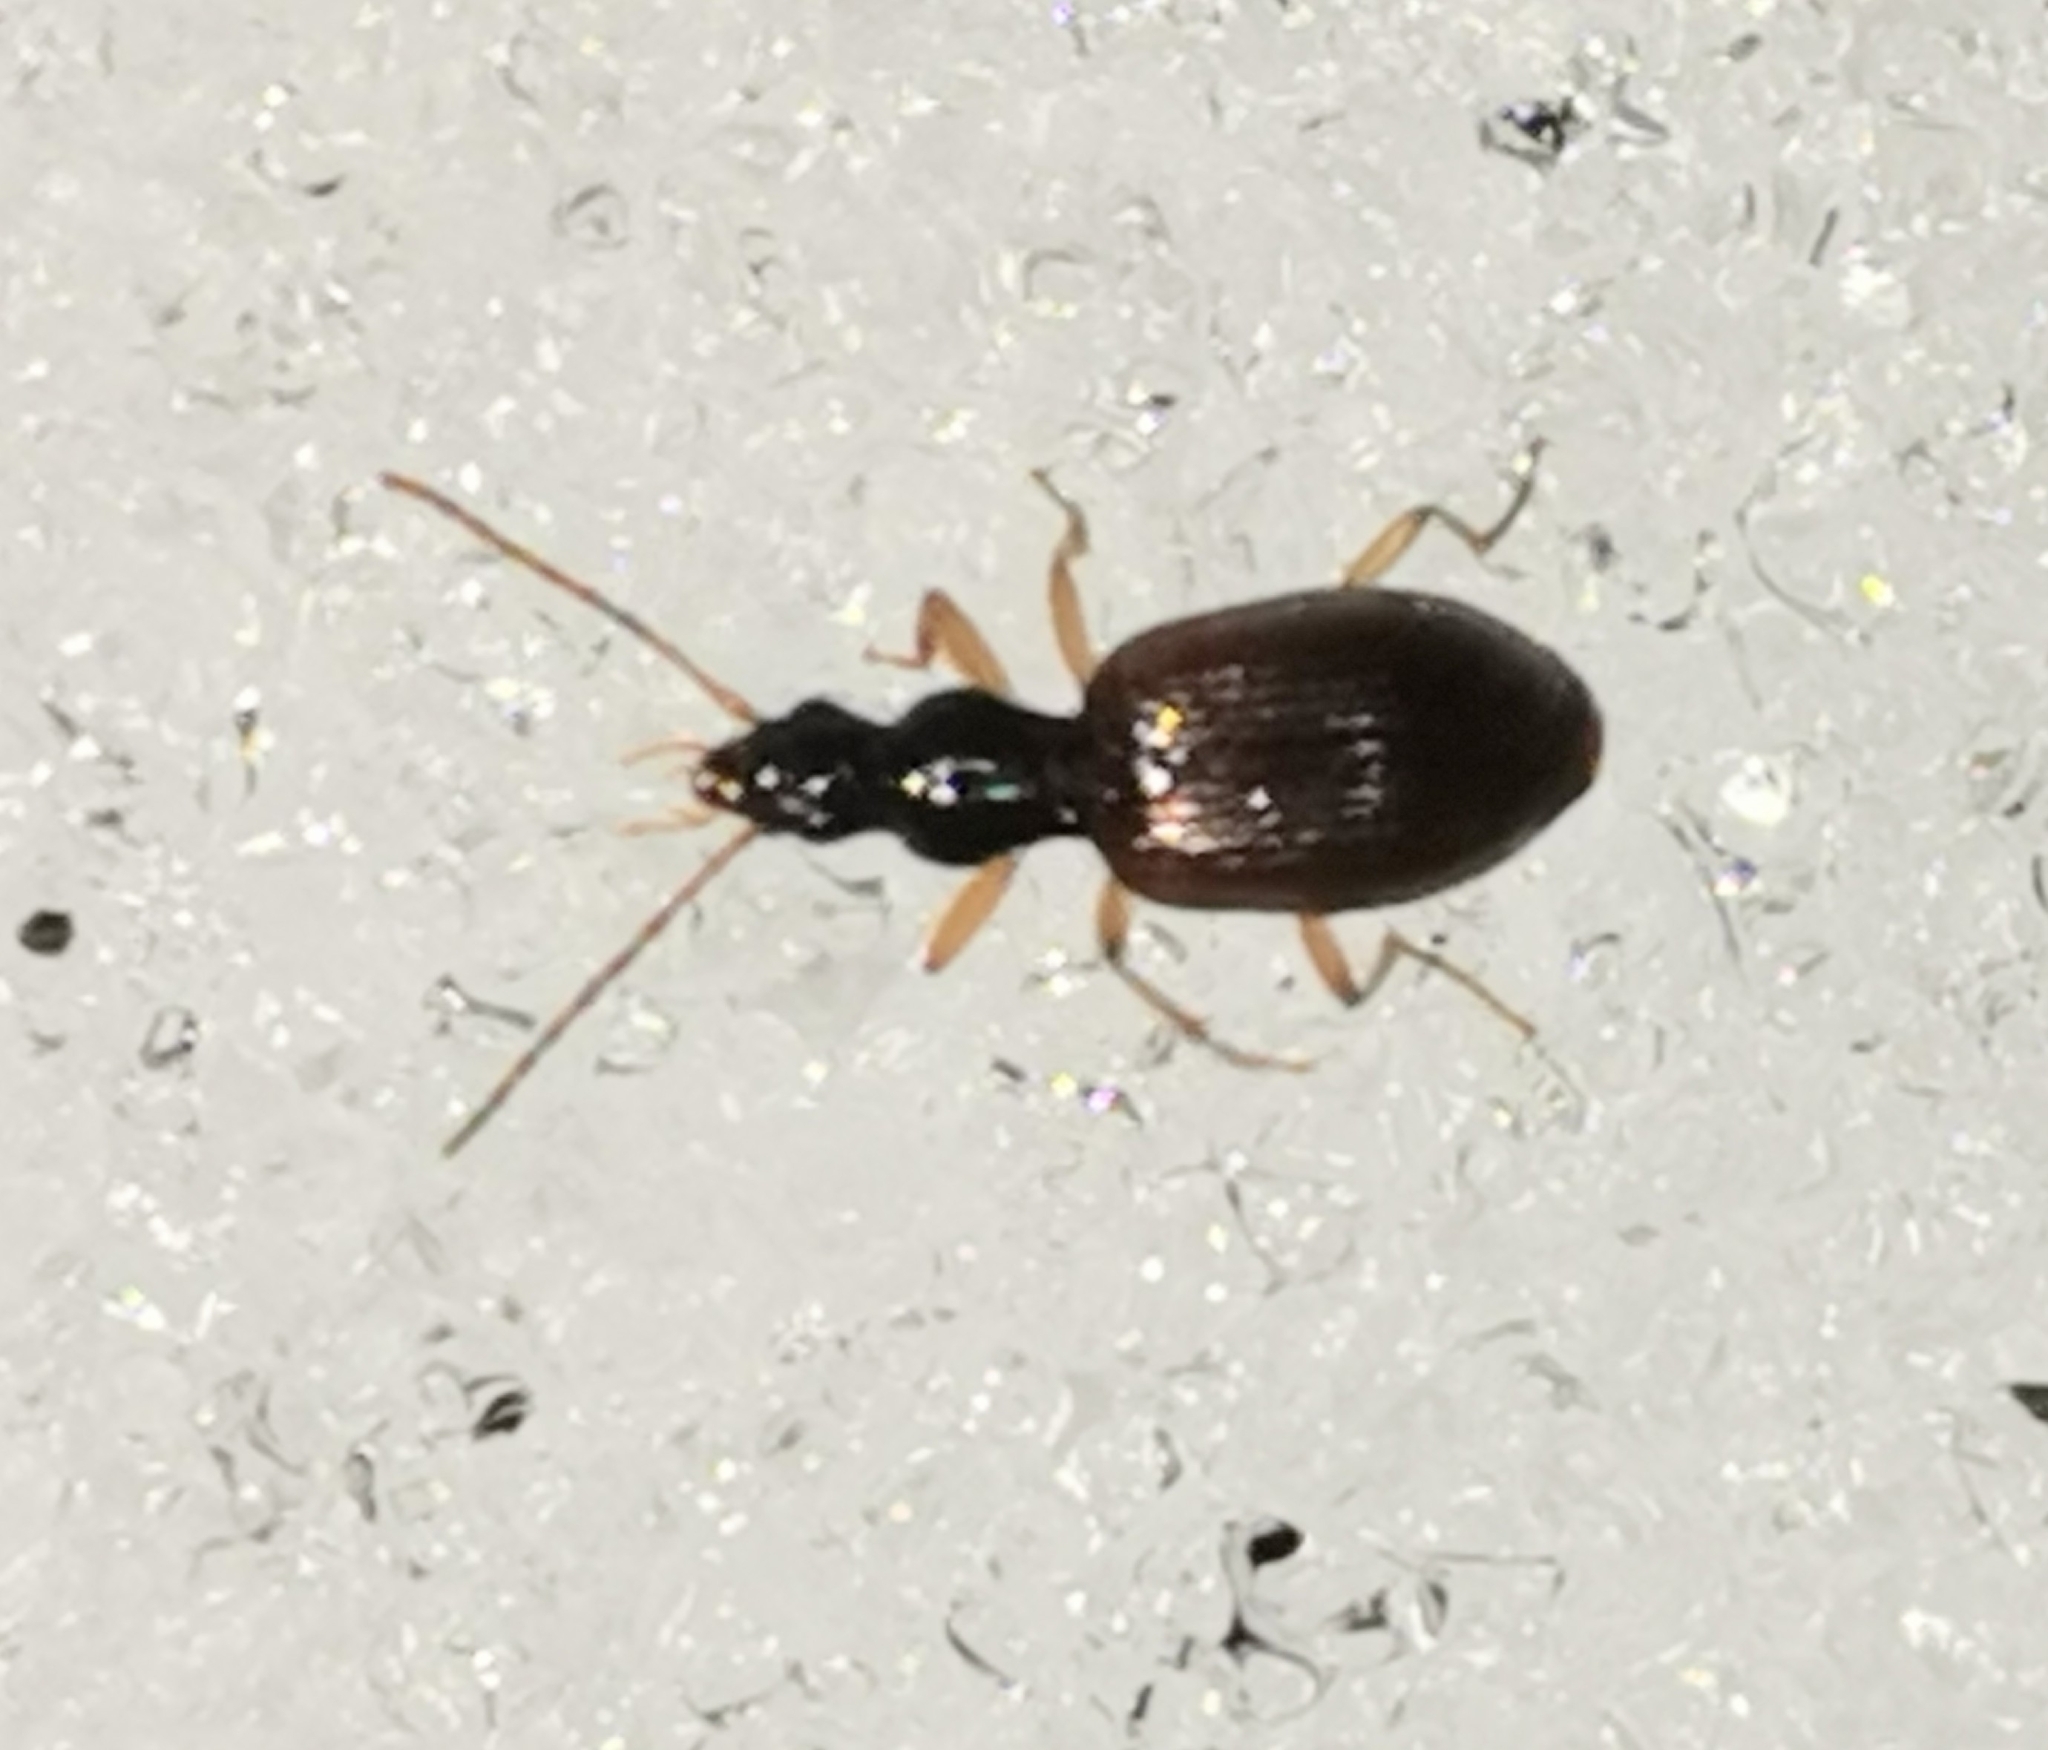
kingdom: Animalia
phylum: Arthropoda
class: Insecta
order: Coleoptera
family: Carabidae
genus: Oxypselaphus
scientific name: Oxypselaphus obscurus
